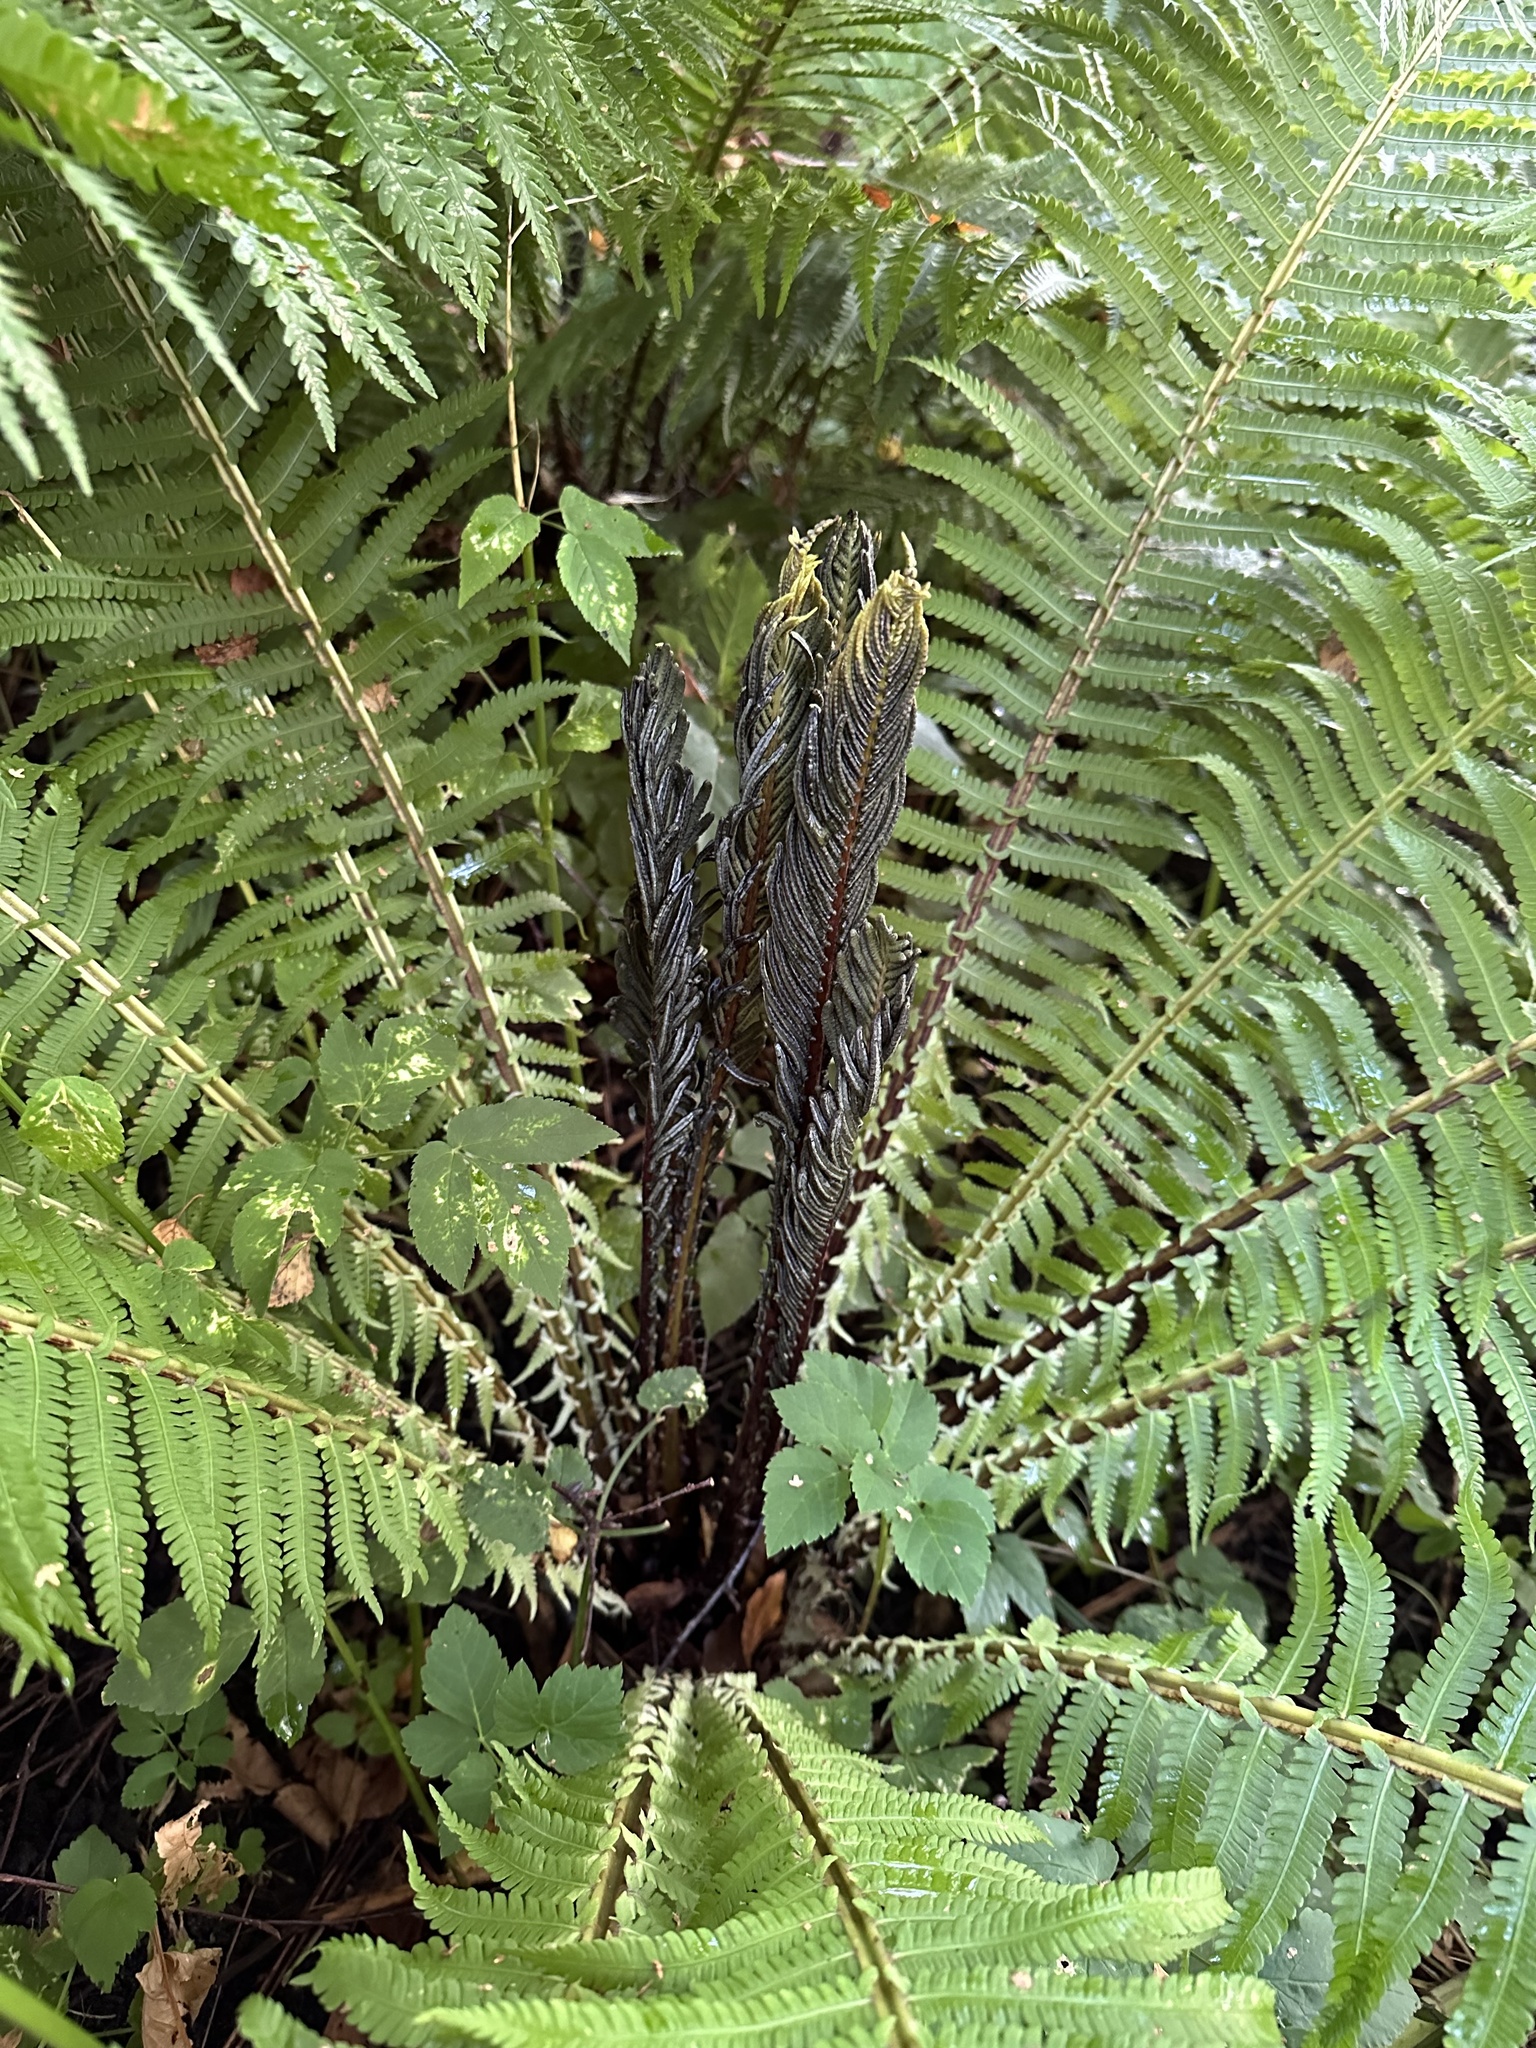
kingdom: Plantae
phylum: Tracheophyta
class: Polypodiopsida
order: Polypodiales
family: Onocleaceae
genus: Matteuccia
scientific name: Matteuccia struthiopteris
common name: Ostrich fern
